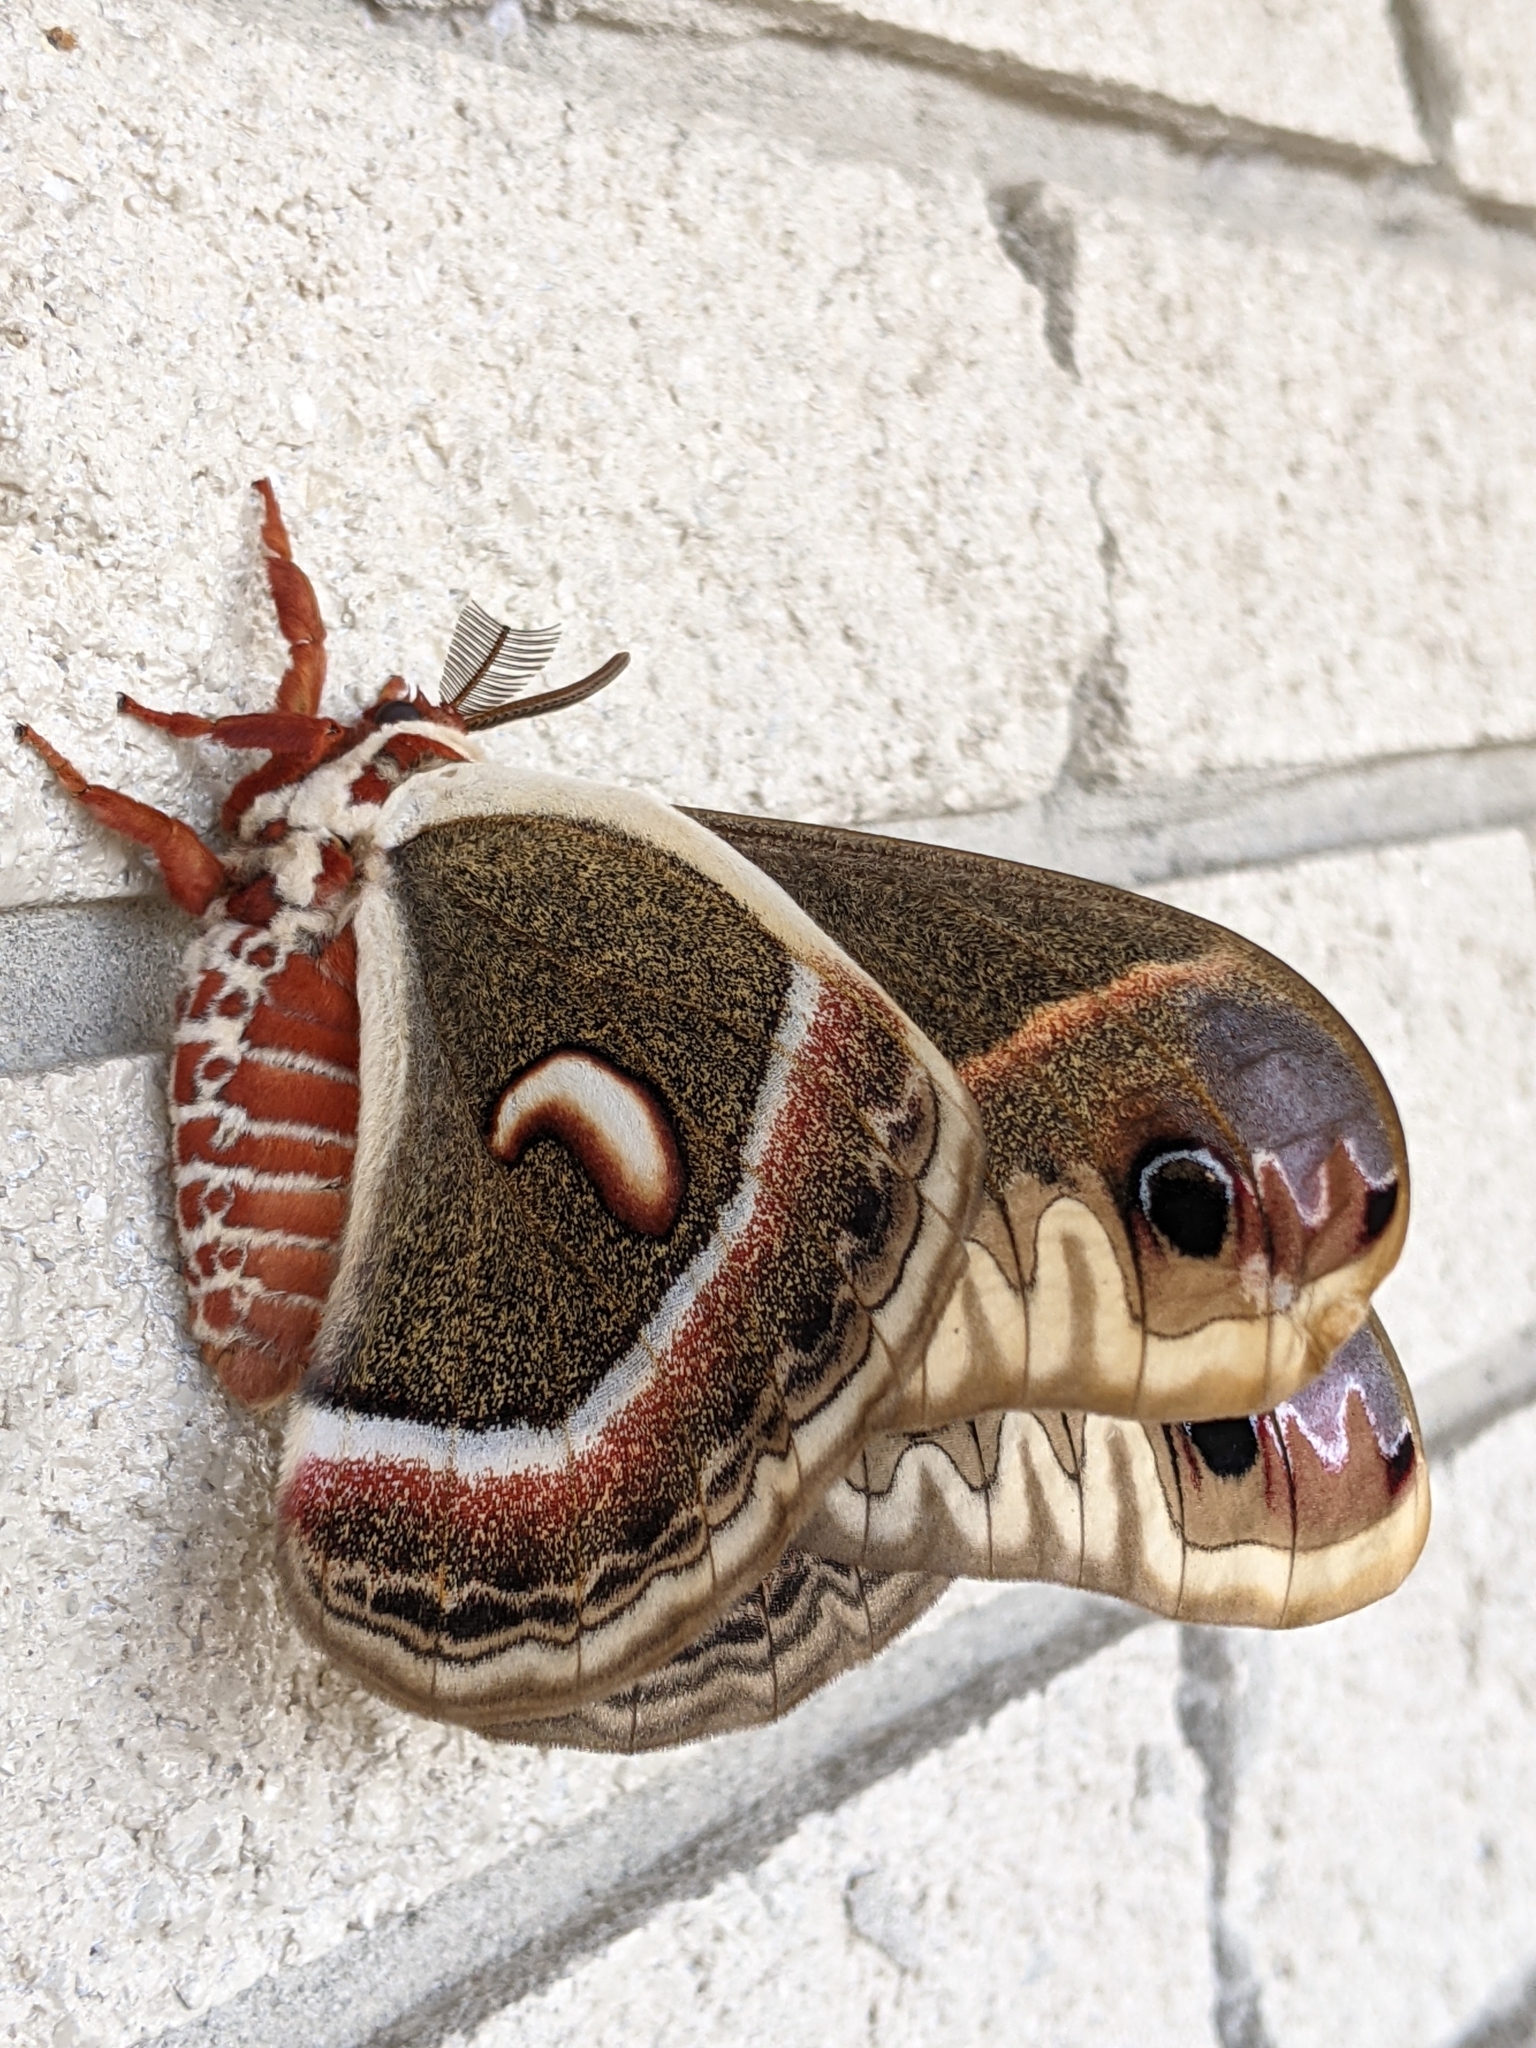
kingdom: Animalia
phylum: Arthropoda
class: Insecta
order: Lepidoptera
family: Saturniidae
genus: Hyalophora
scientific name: Hyalophora cecropia
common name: Cecropia silkmoth
